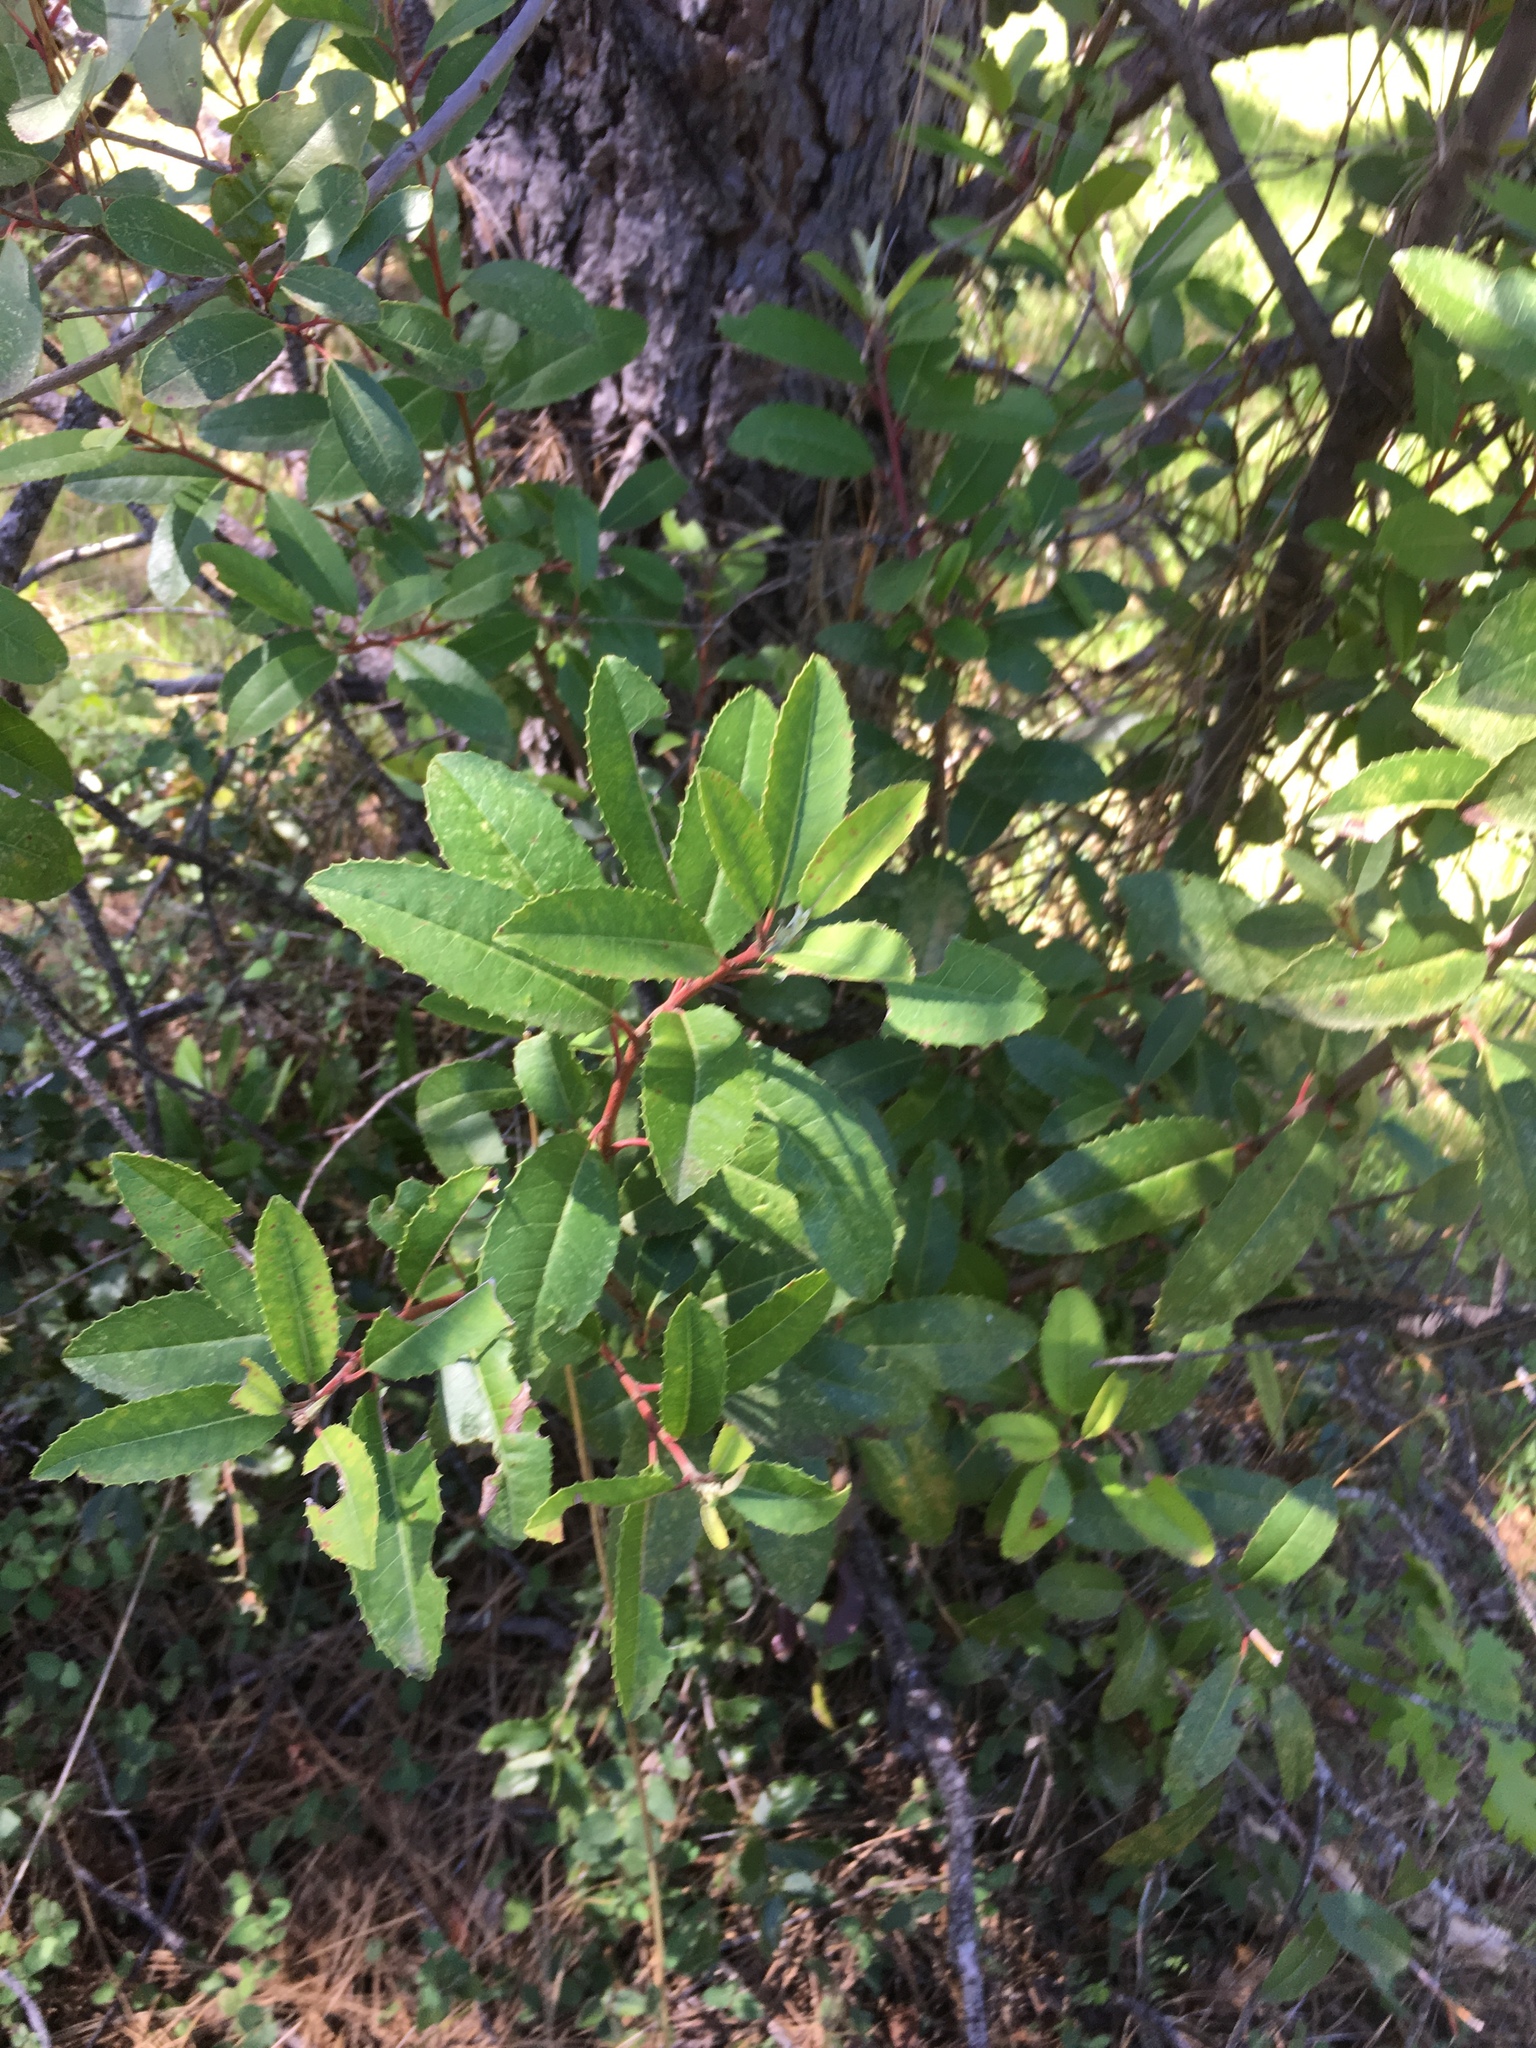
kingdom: Plantae
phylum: Tracheophyta
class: Magnoliopsida
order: Rosales
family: Rosaceae
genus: Heteromeles
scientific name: Heteromeles arbutifolia
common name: California-holly
